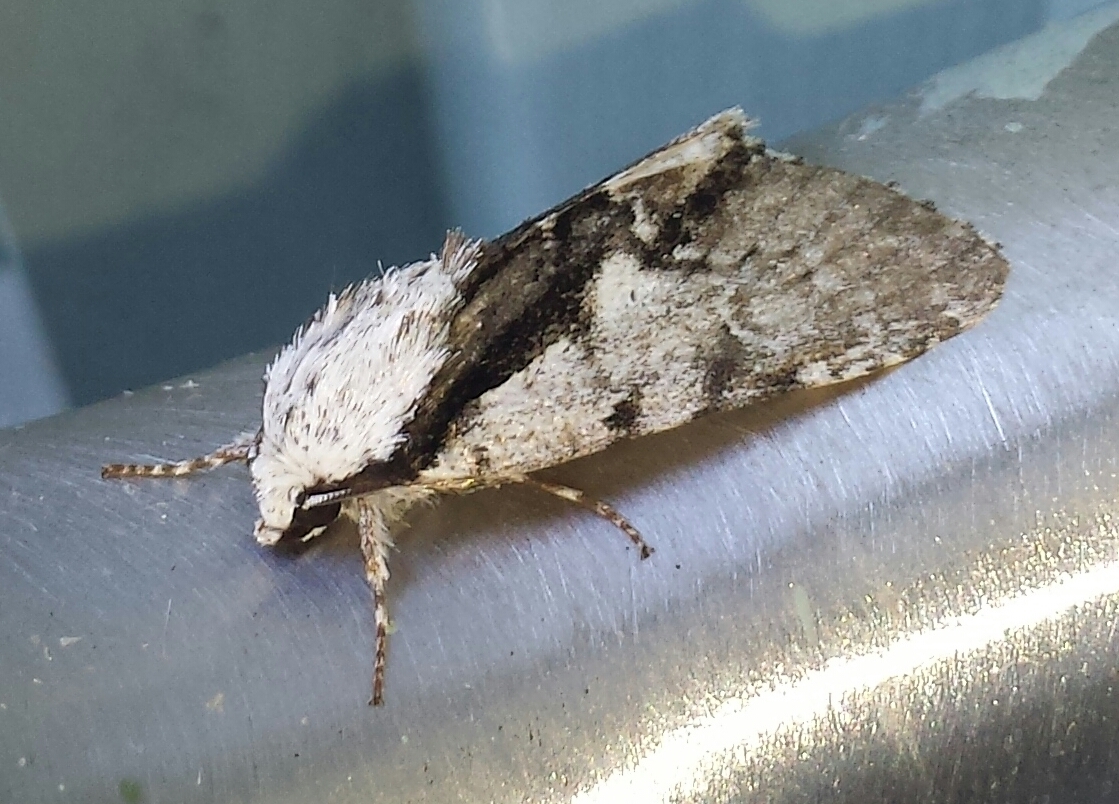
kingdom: Animalia
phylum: Arthropoda
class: Insecta
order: Lepidoptera
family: Noctuidae
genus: Acronicta
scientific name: Acronicta funeralis
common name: Funerary dagger
